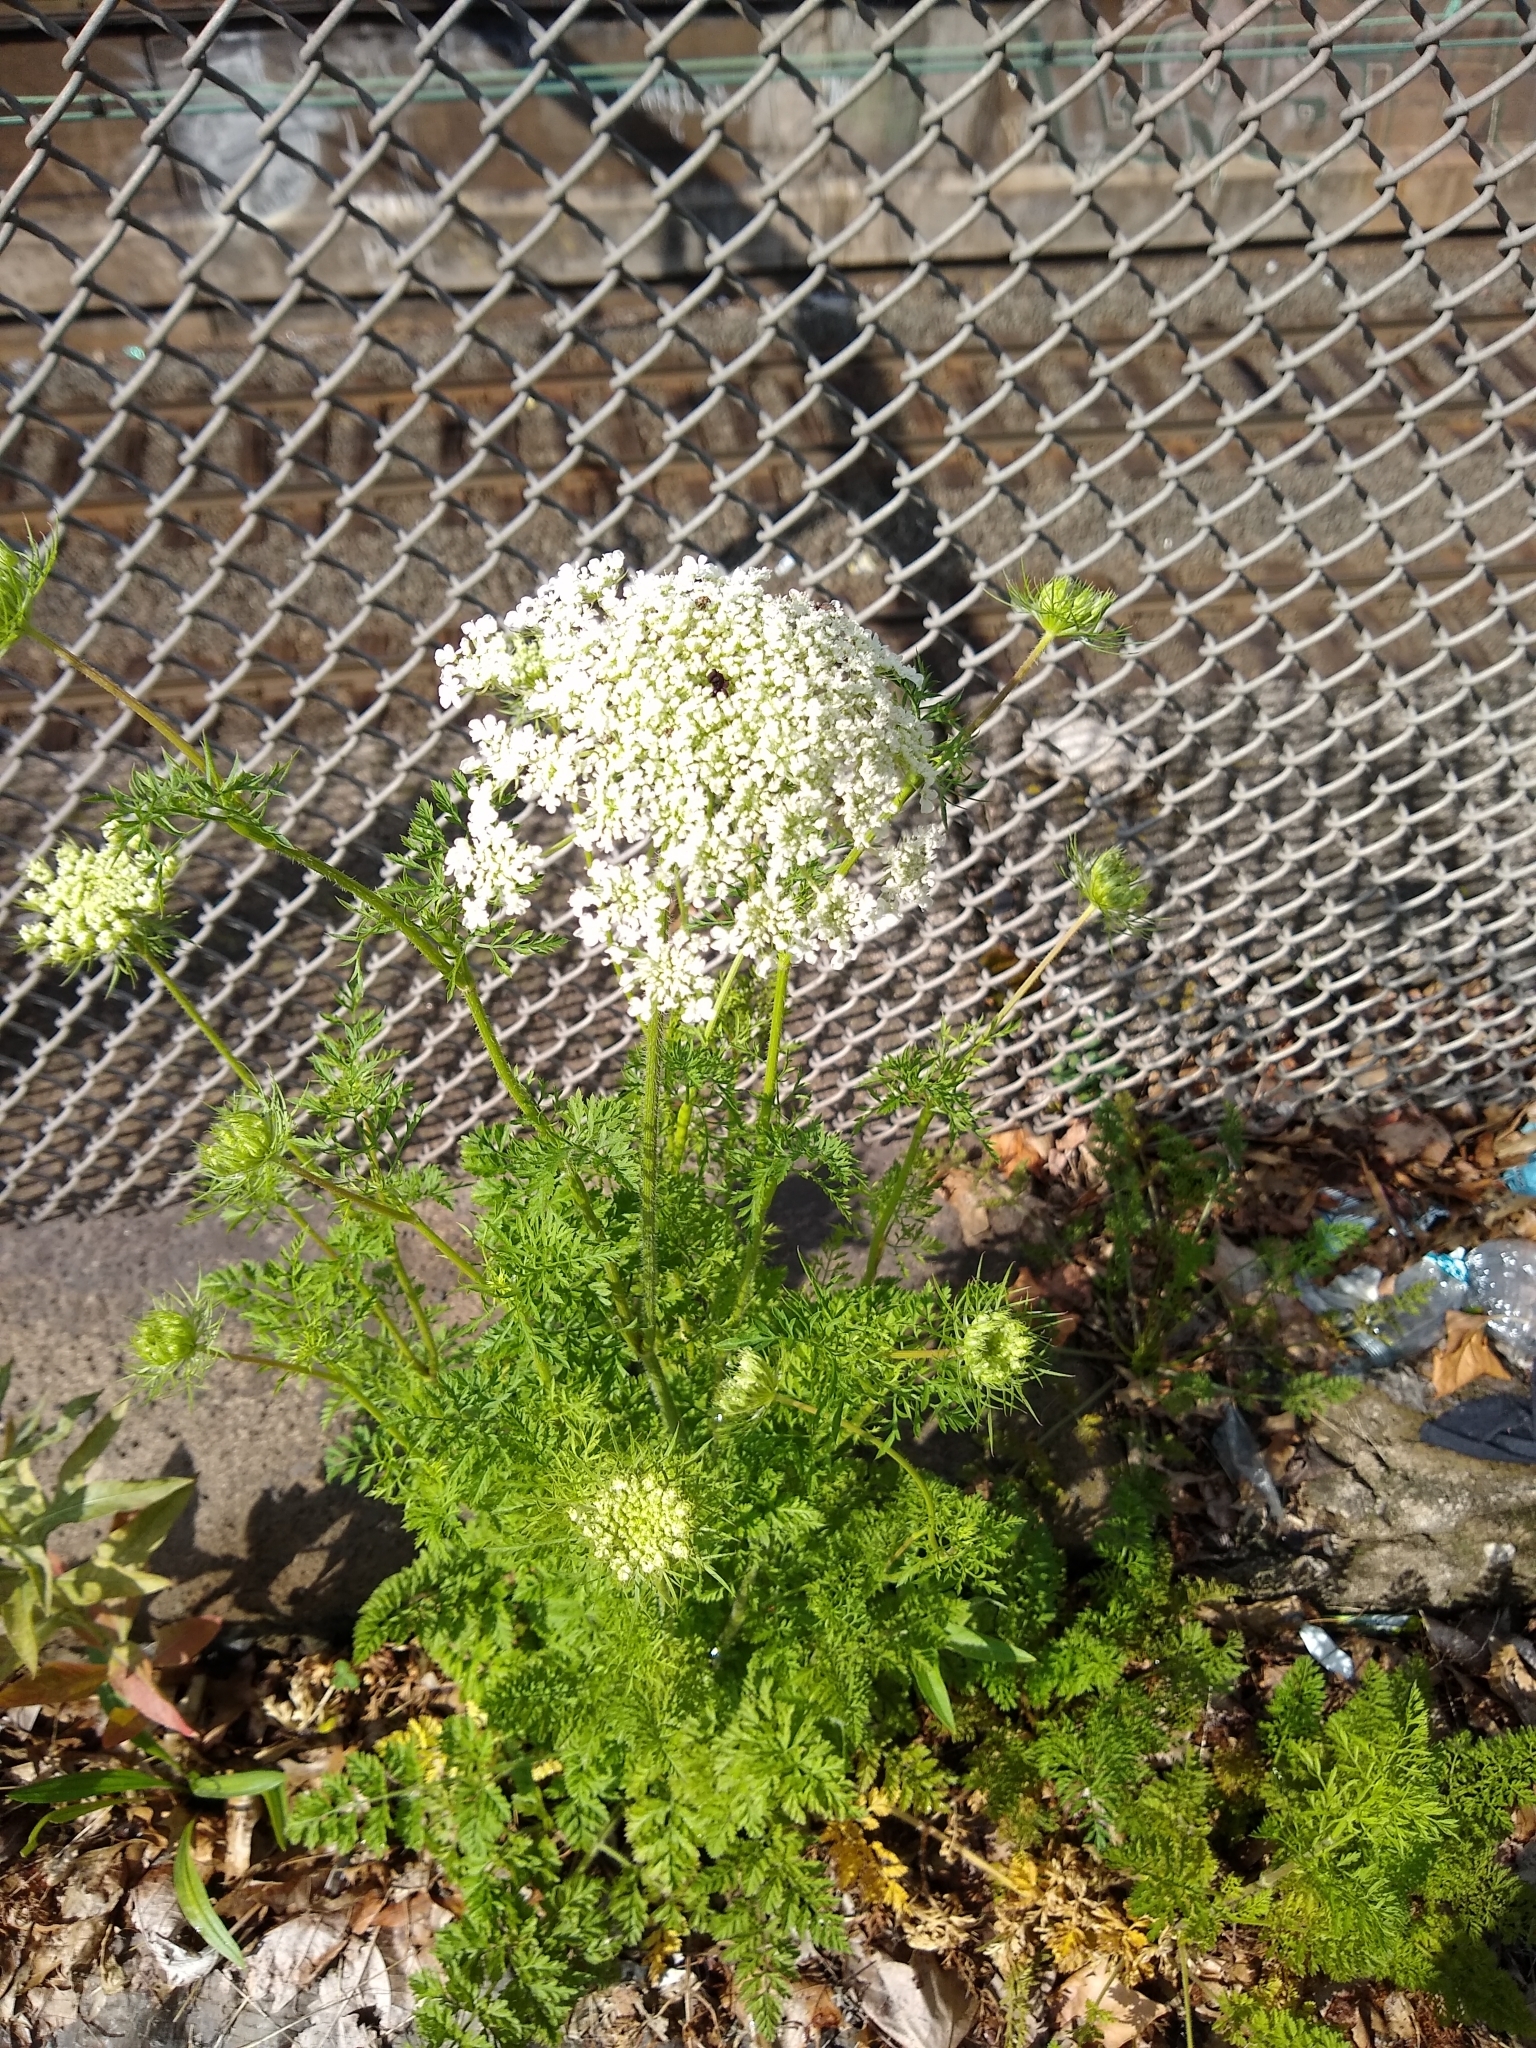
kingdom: Plantae
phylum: Tracheophyta
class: Magnoliopsida
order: Apiales
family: Apiaceae
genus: Daucus
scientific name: Daucus carota
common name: Wild carrot
